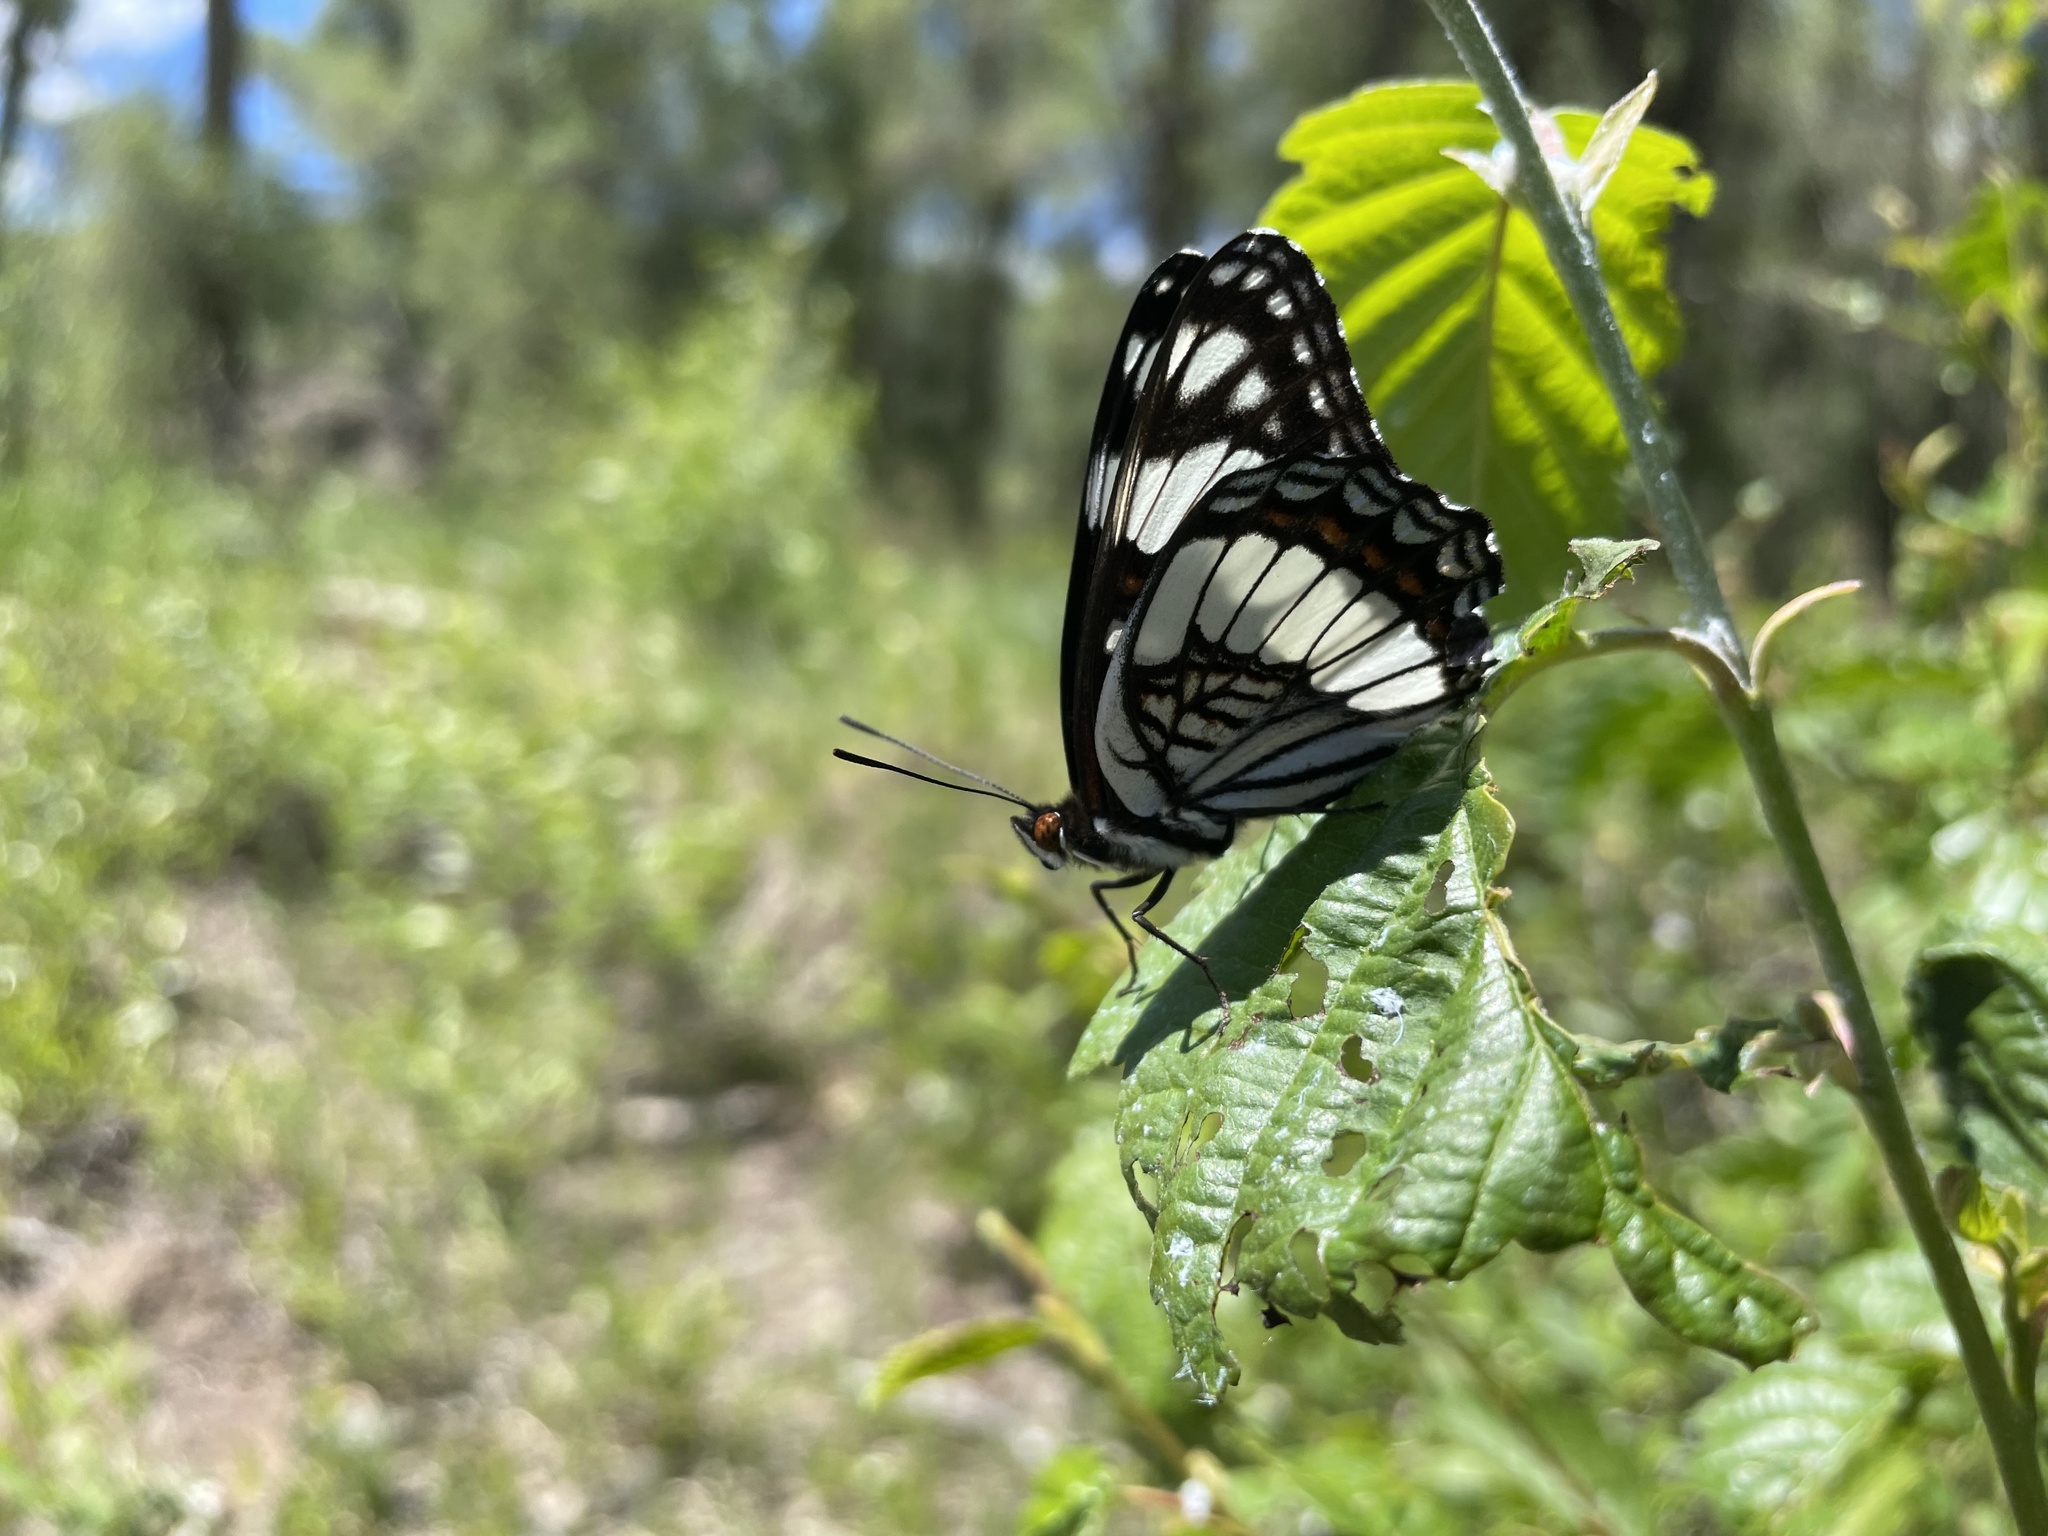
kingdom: Animalia
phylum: Arthropoda
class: Insecta
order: Lepidoptera
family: Nymphalidae
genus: Limenitis
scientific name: Limenitis weidemeyerii
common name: Weidemeyer's admiral
